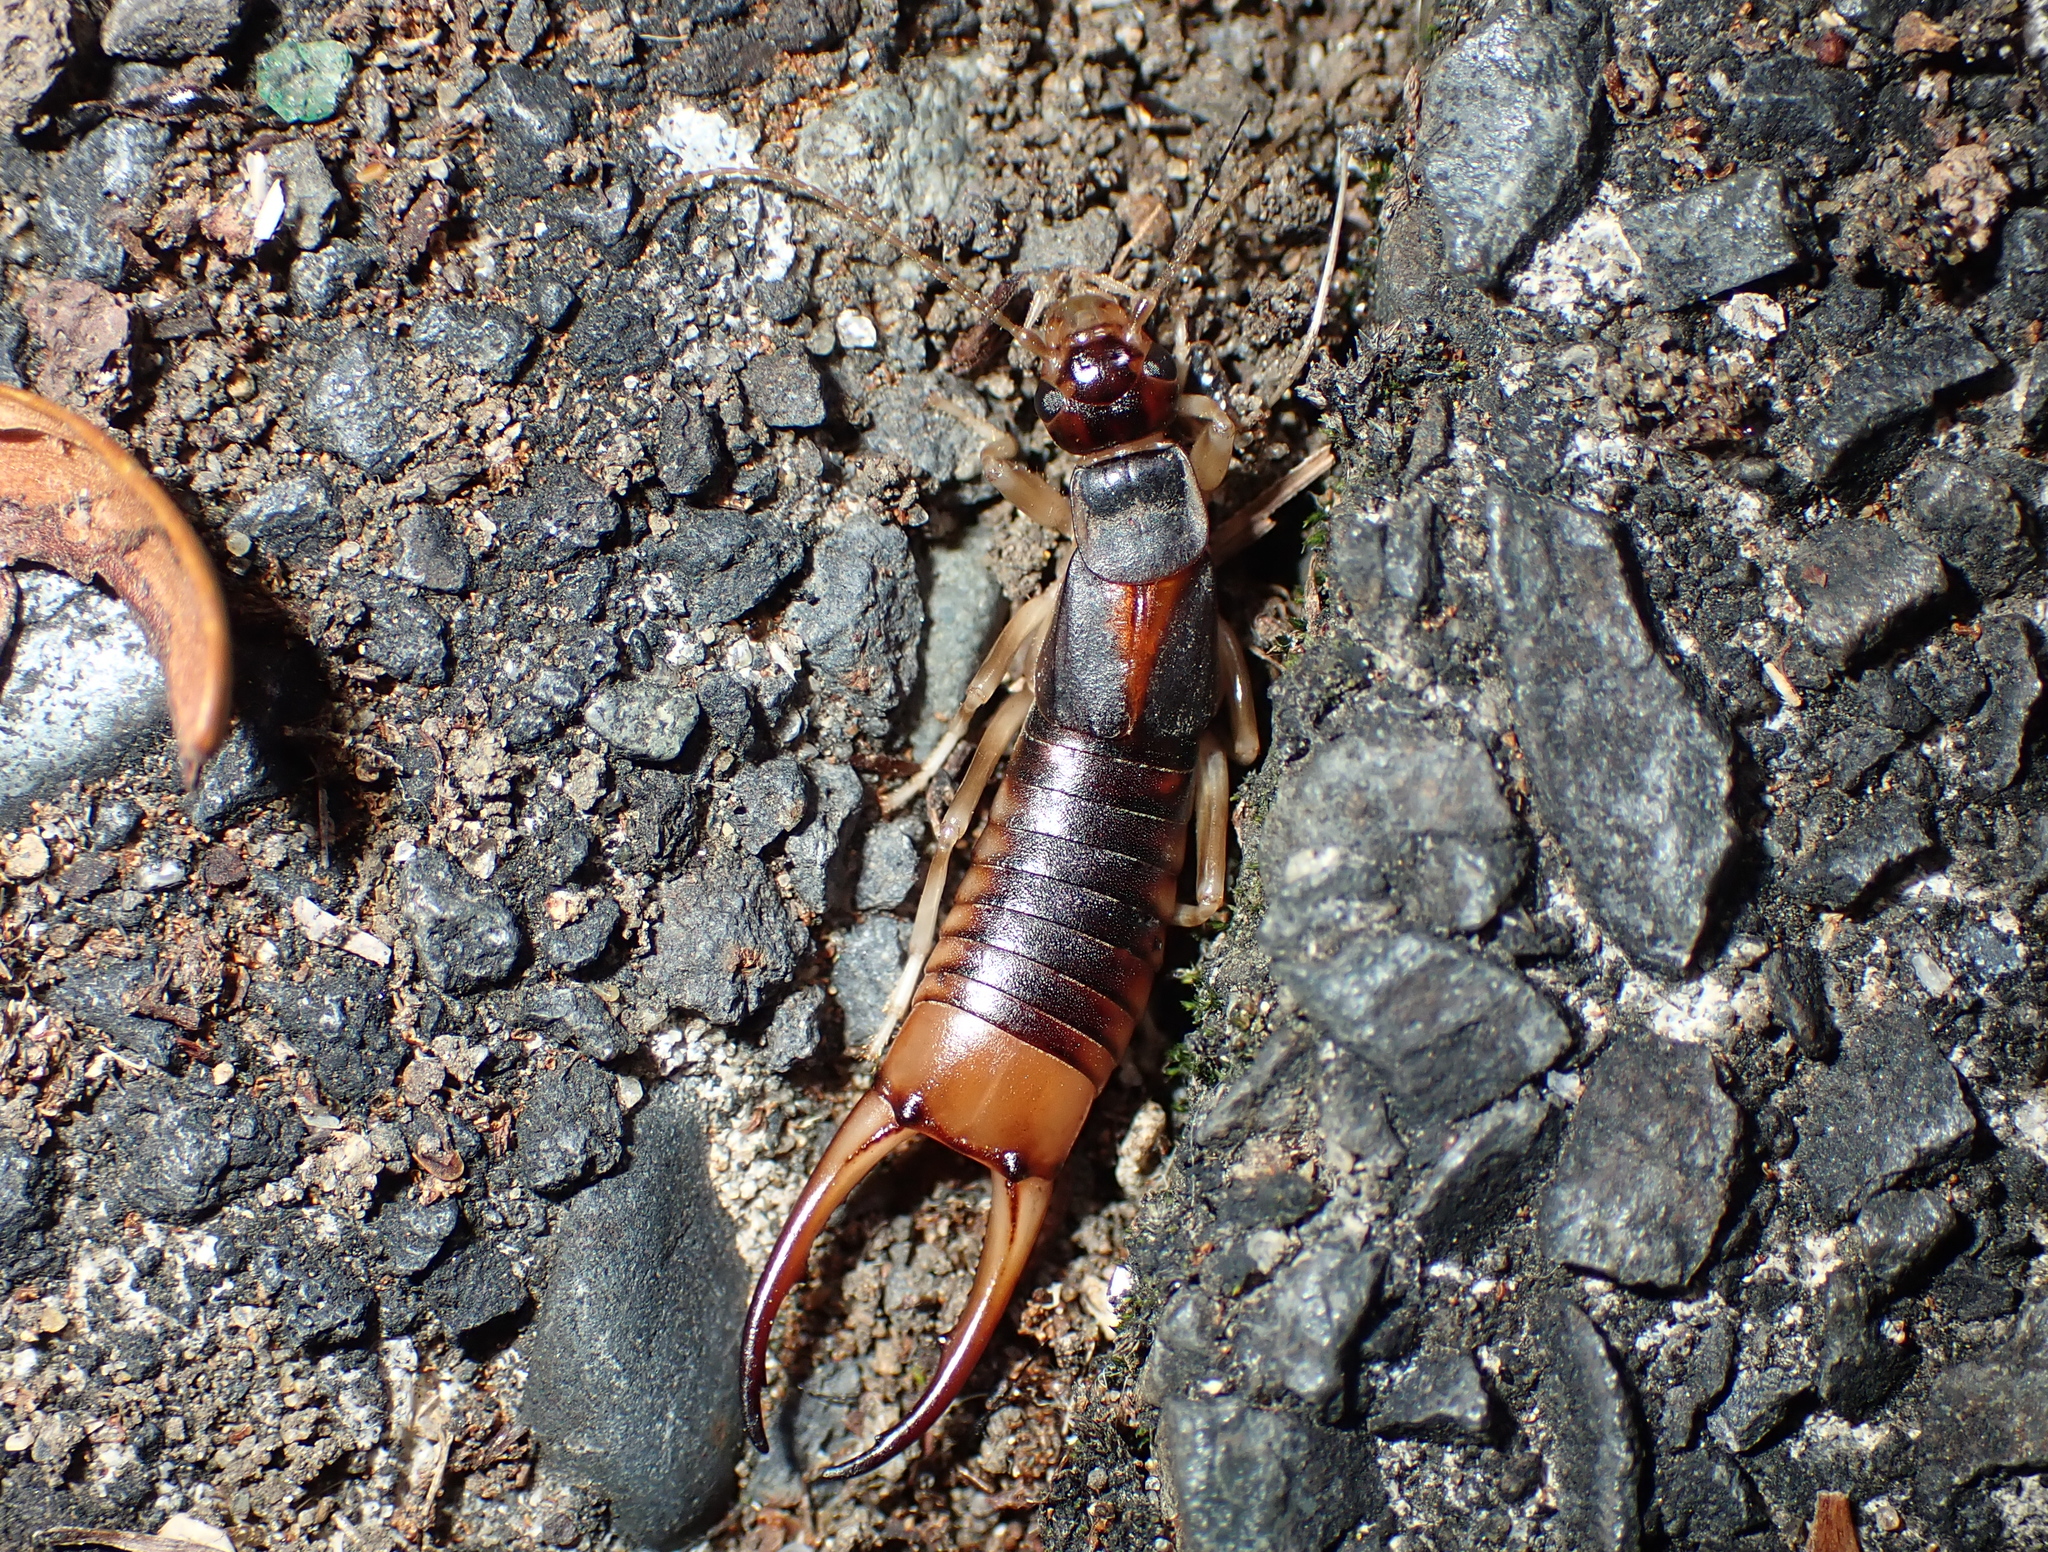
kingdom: Animalia
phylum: Arthropoda
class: Insecta
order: Dermaptera
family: Labiduridae
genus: Labidura
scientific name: Labidura riparia
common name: Striped earwig
